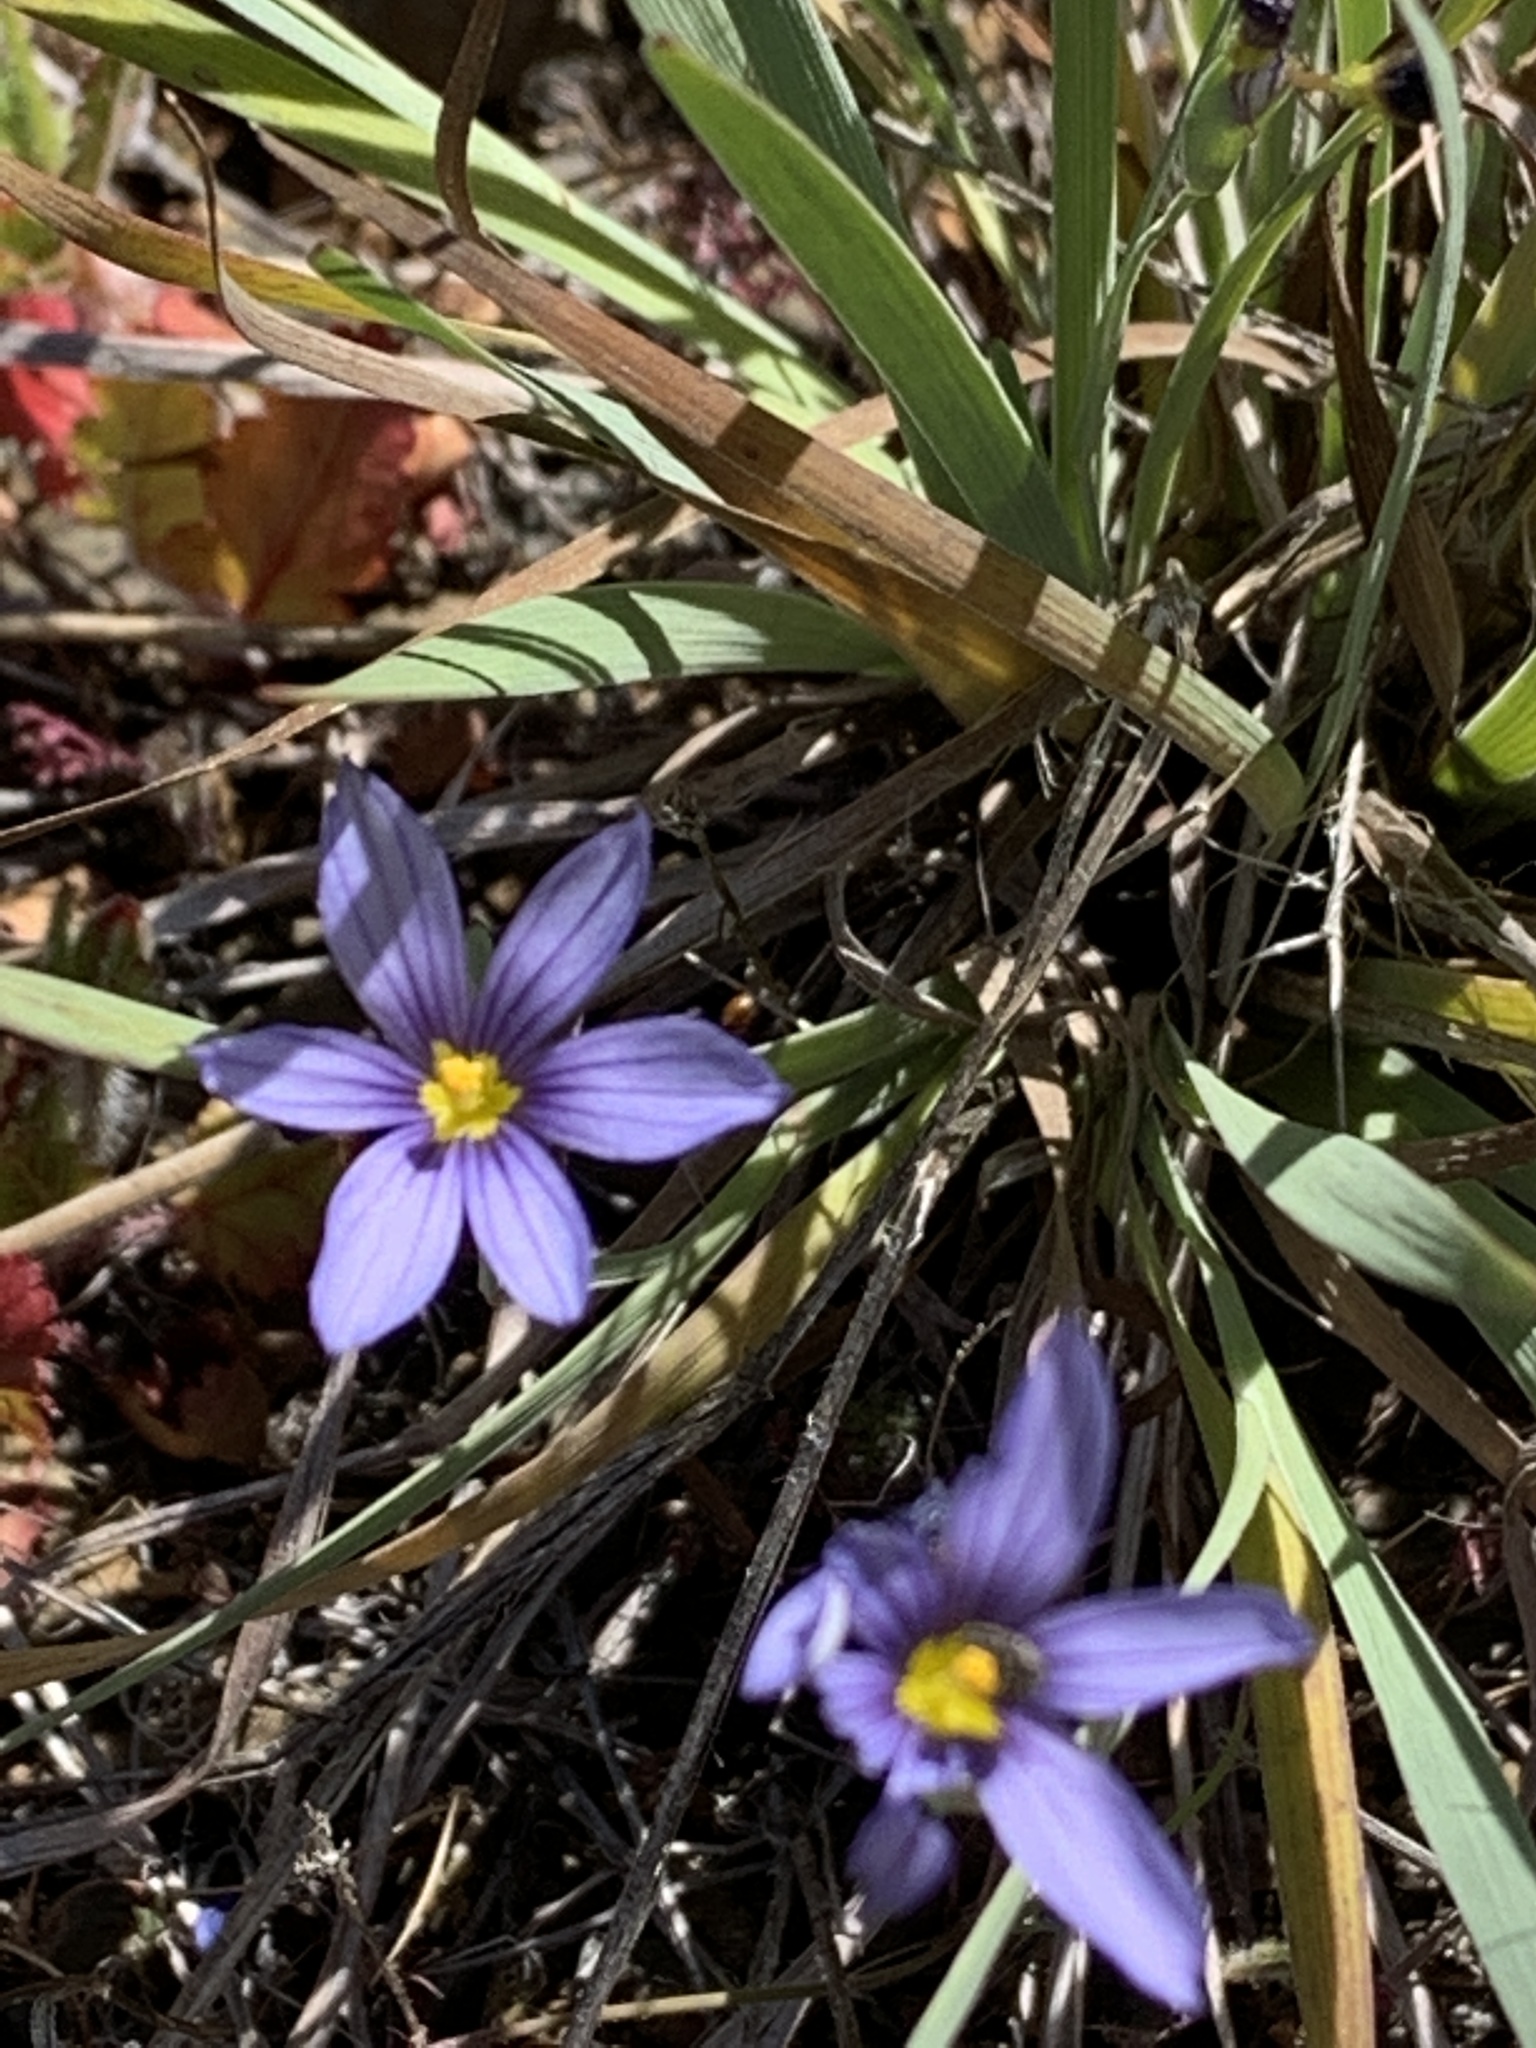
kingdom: Plantae
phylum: Tracheophyta
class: Liliopsida
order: Asparagales
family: Iridaceae
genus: Sisyrinchium
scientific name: Sisyrinchium bellum
